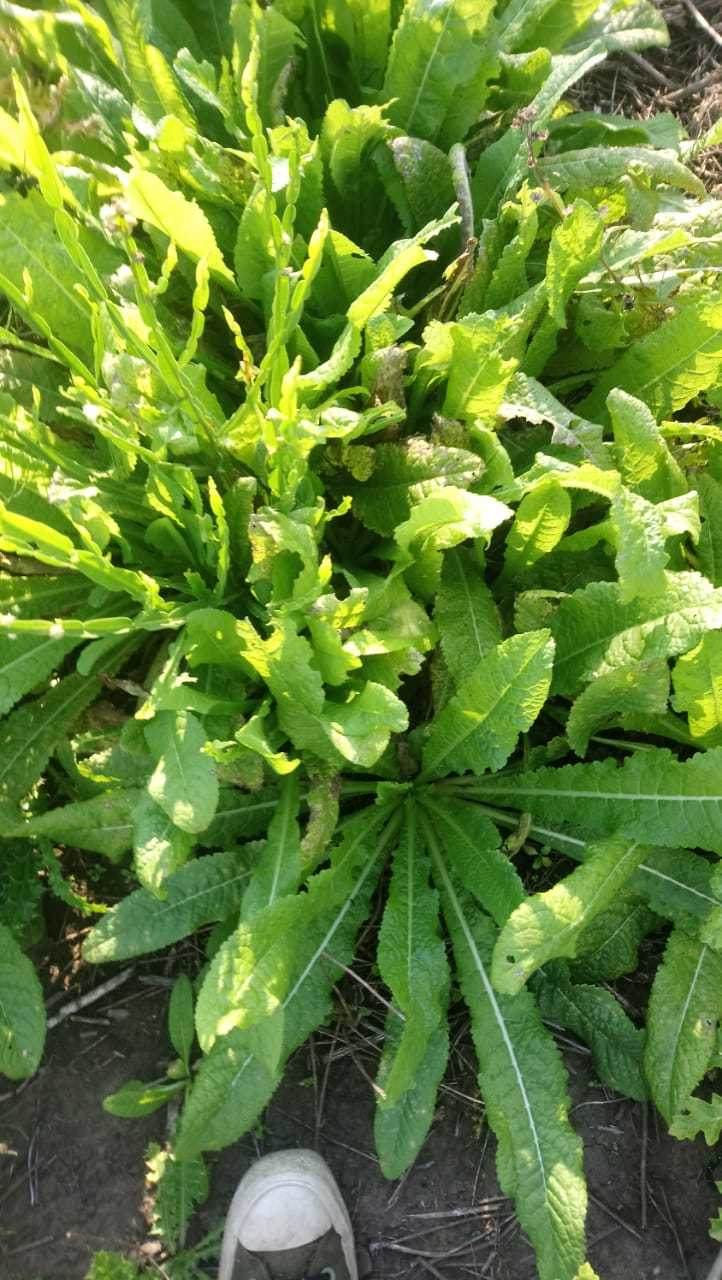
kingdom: Plantae
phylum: Tracheophyta
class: Magnoliopsida
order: Dipsacales
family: Caprifoliaceae
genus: Dipsacus
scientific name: Dipsacus fullonum
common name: Teasel
